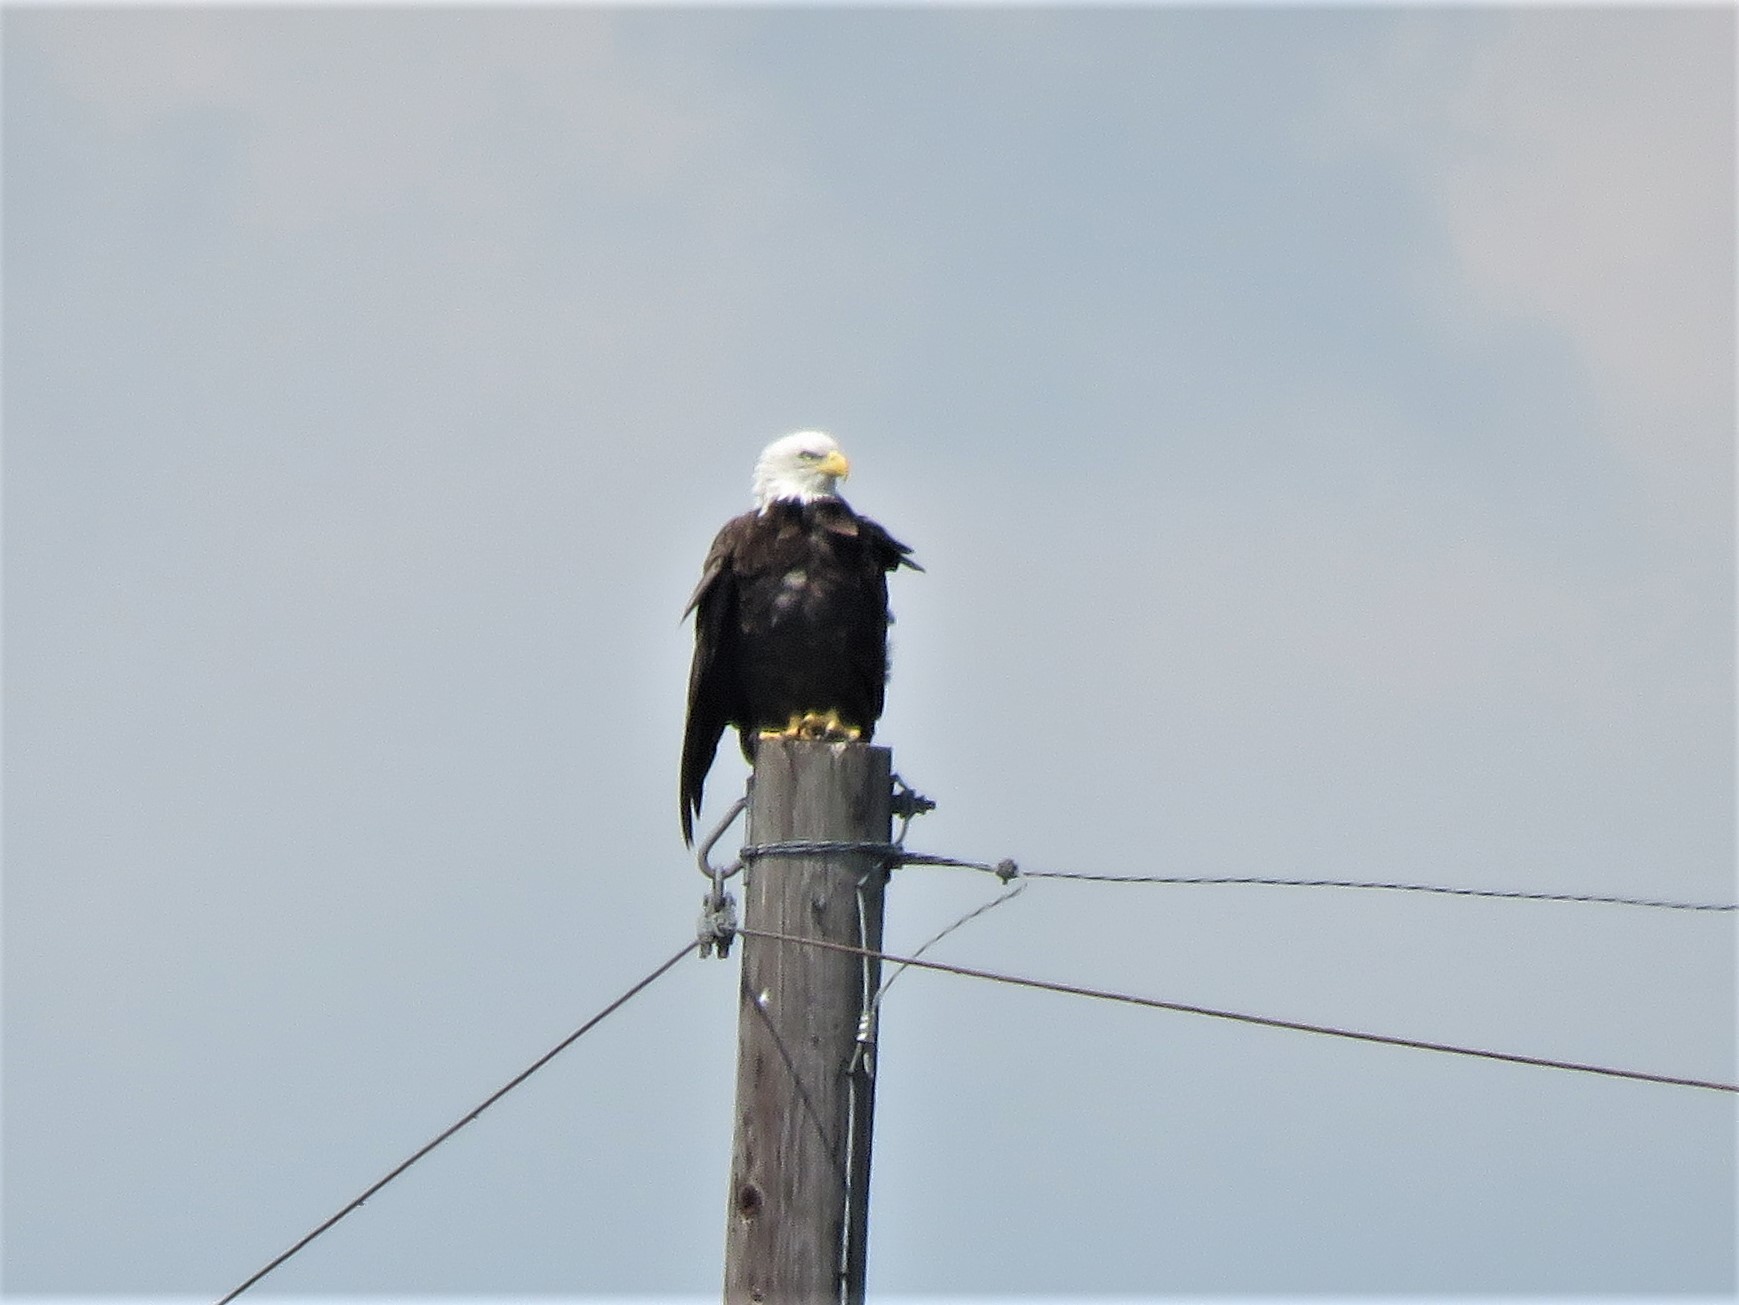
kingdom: Animalia
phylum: Chordata
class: Aves
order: Accipitriformes
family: Accipitridae
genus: Haliaeetus
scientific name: Haliaeetus leucocephalus
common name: Bald eagle
